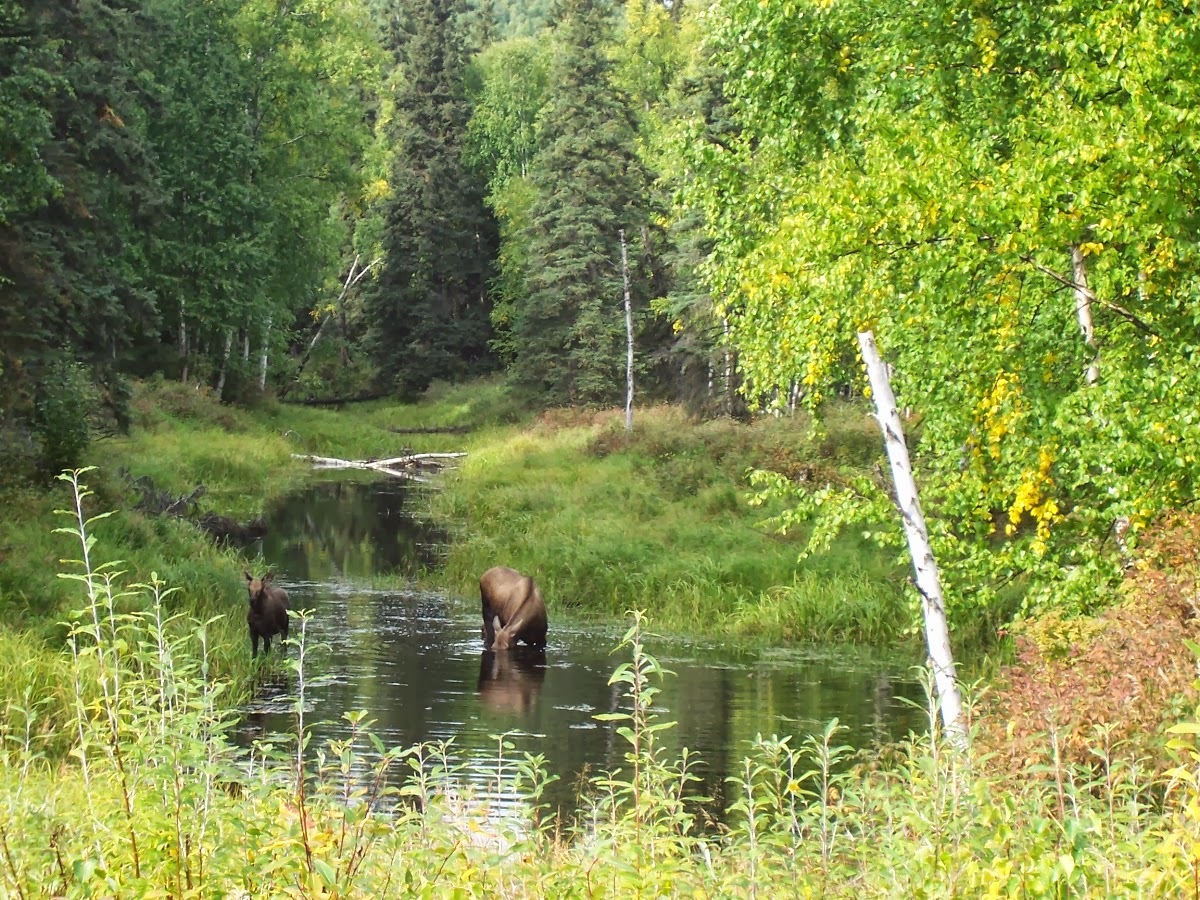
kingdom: Animalia
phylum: Chordata
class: Mammalia
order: Artiodactyla
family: Cervidae
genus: Alces
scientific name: Alces alces
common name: Moose
